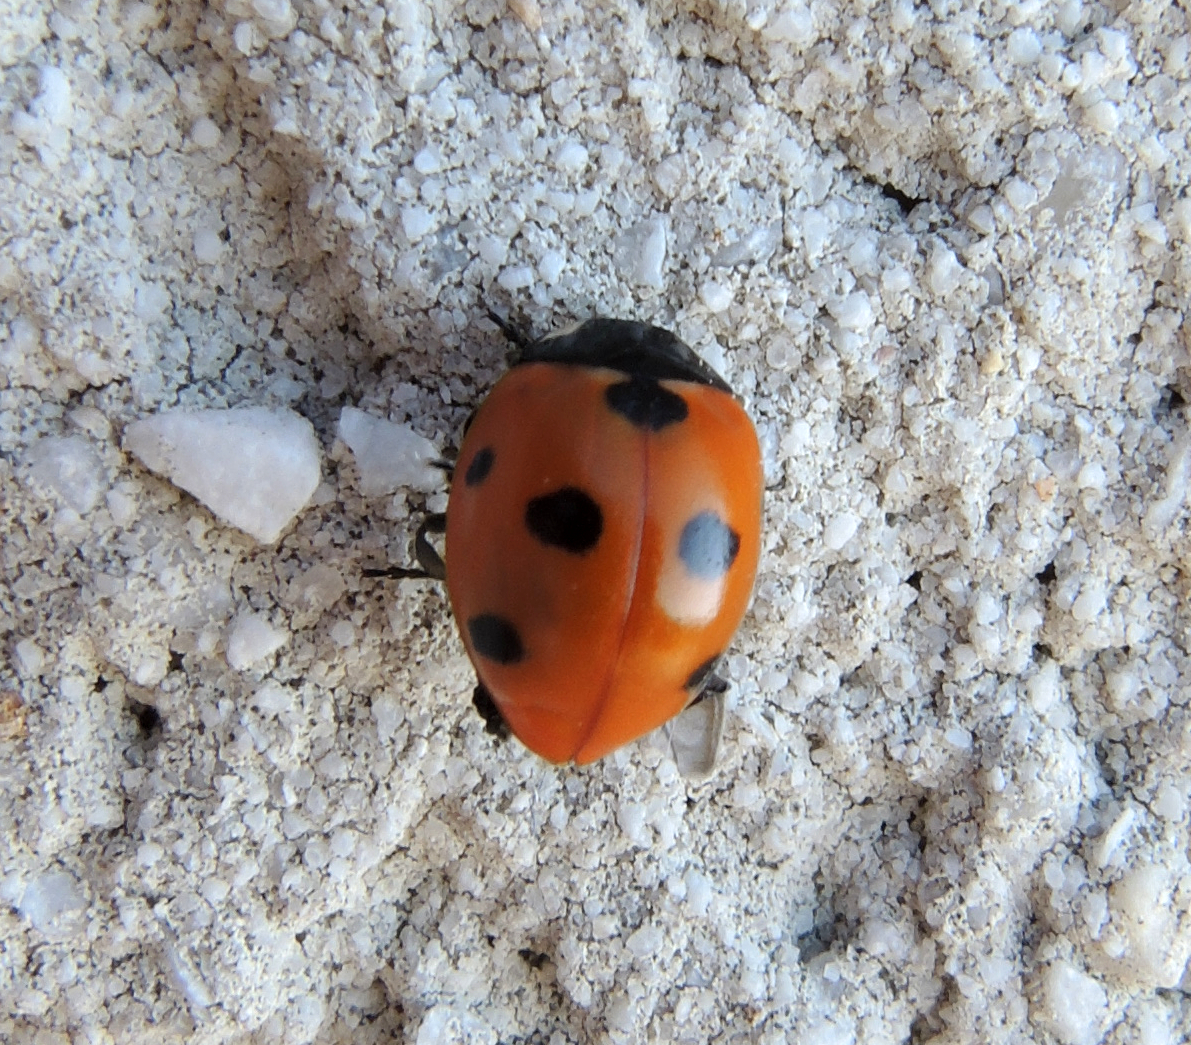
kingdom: Animalia
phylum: Arthropoda
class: Insecta
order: Coleoptera
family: Coccinellidae
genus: Coccinella
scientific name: Coccinella septempunctata
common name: Sevenspotted lady beetle
